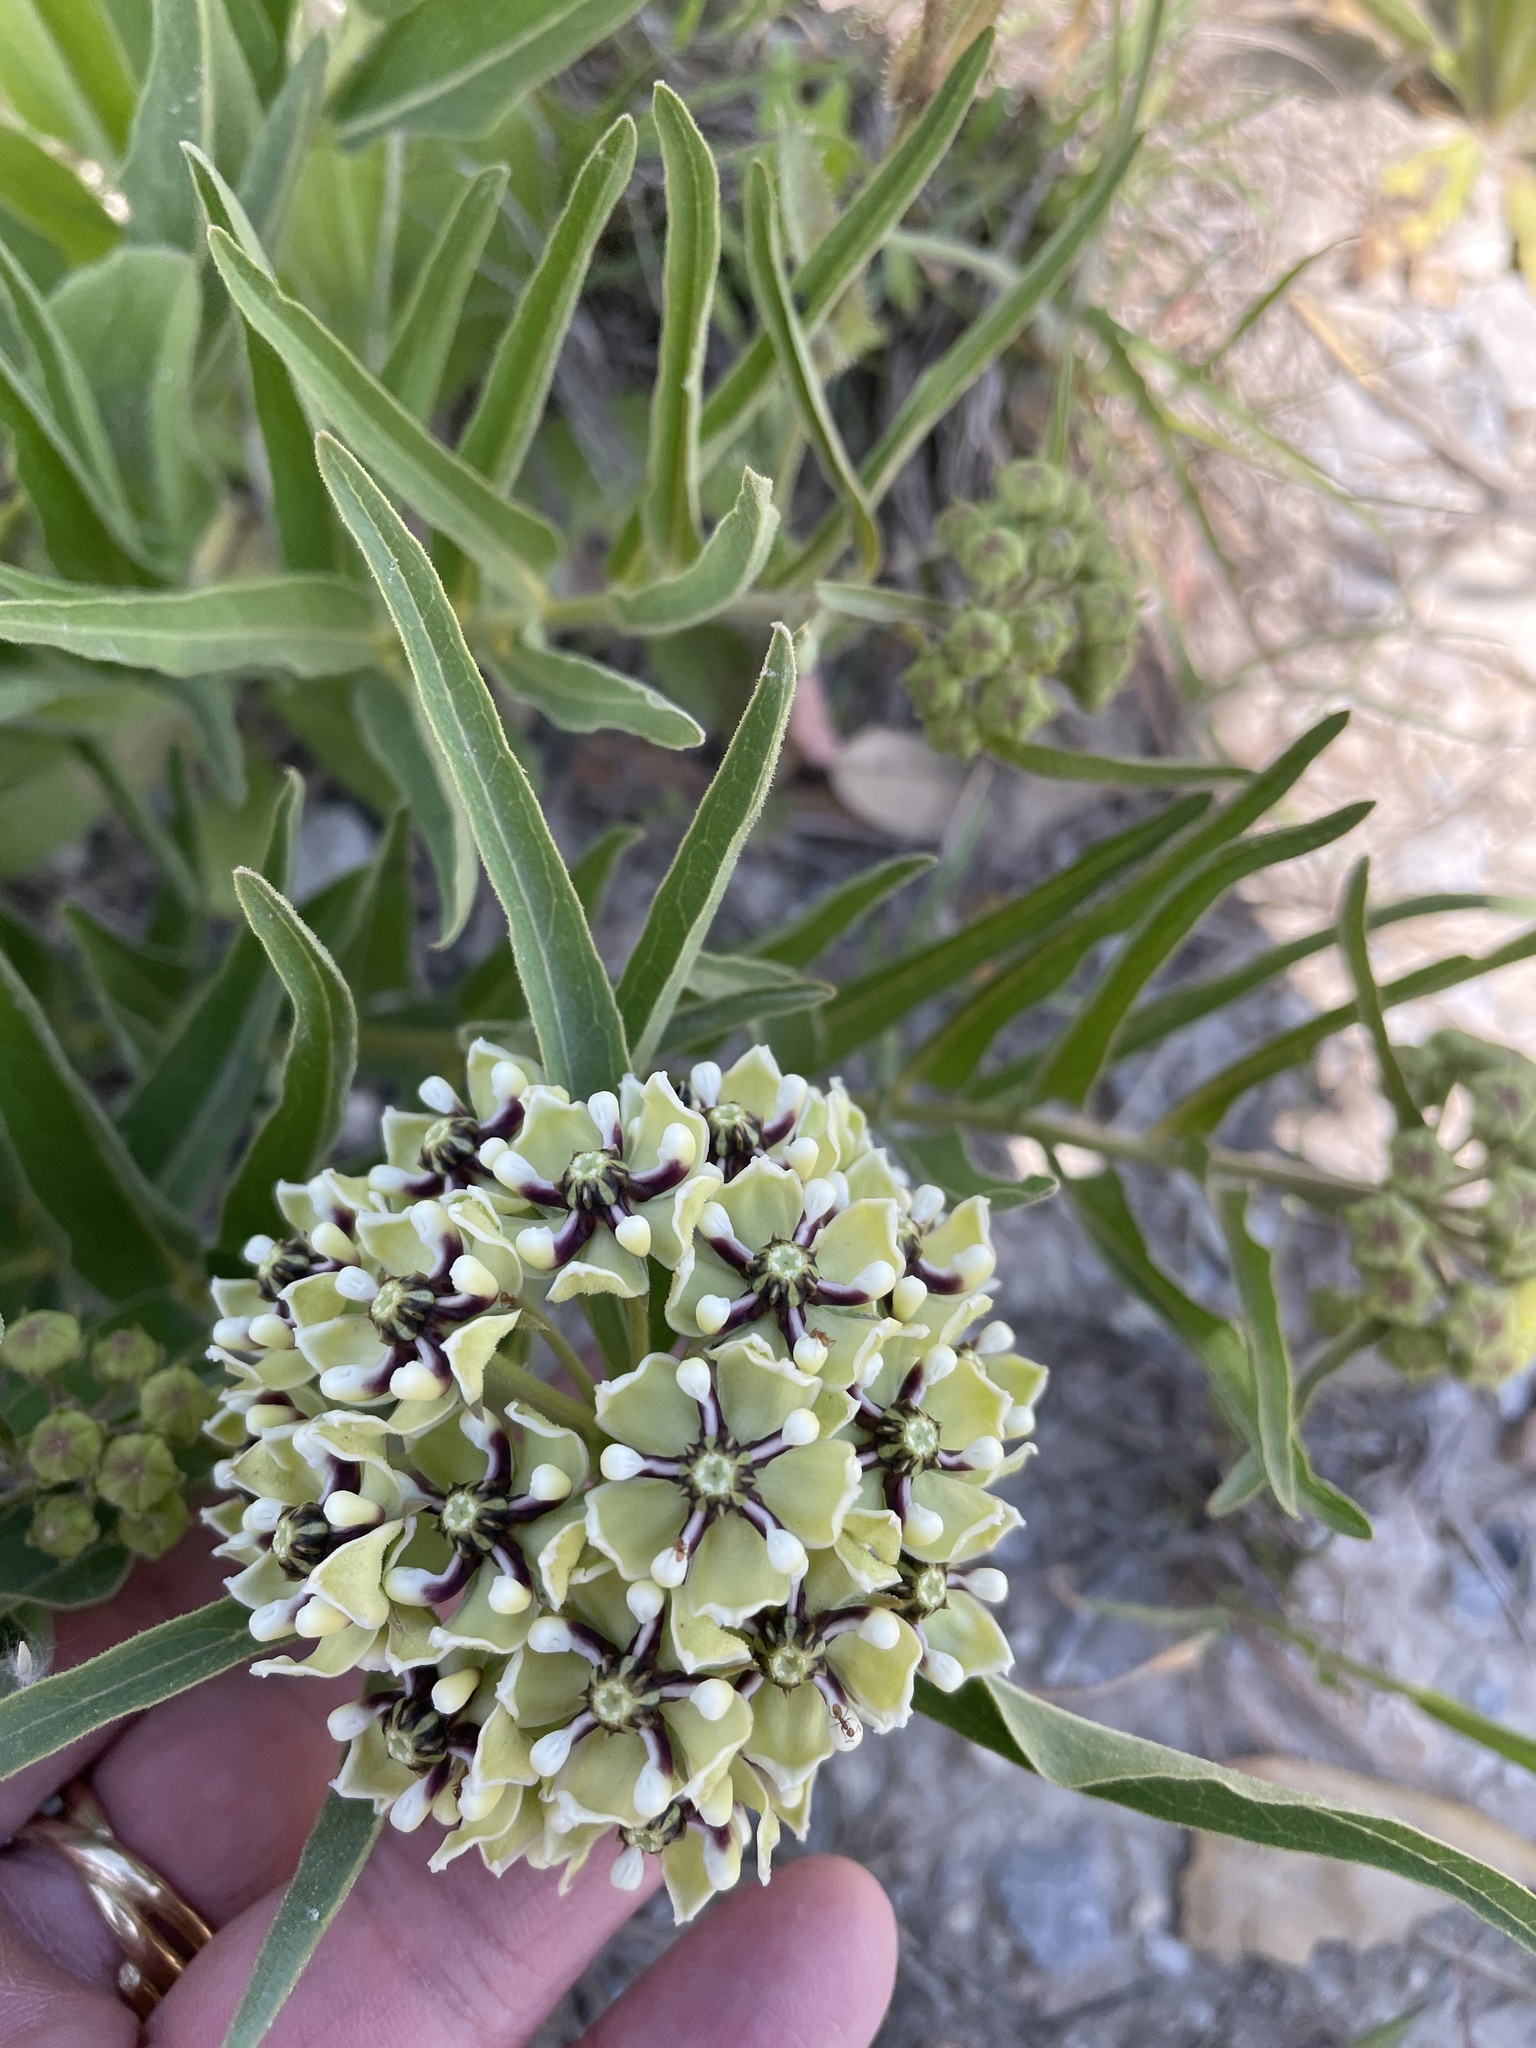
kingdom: Plantae
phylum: Tracheophyta
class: Magnoliopsida
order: Gentianales
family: Apocynaceae
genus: Asclepias
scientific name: Asclepias asperula
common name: Antelope horns
